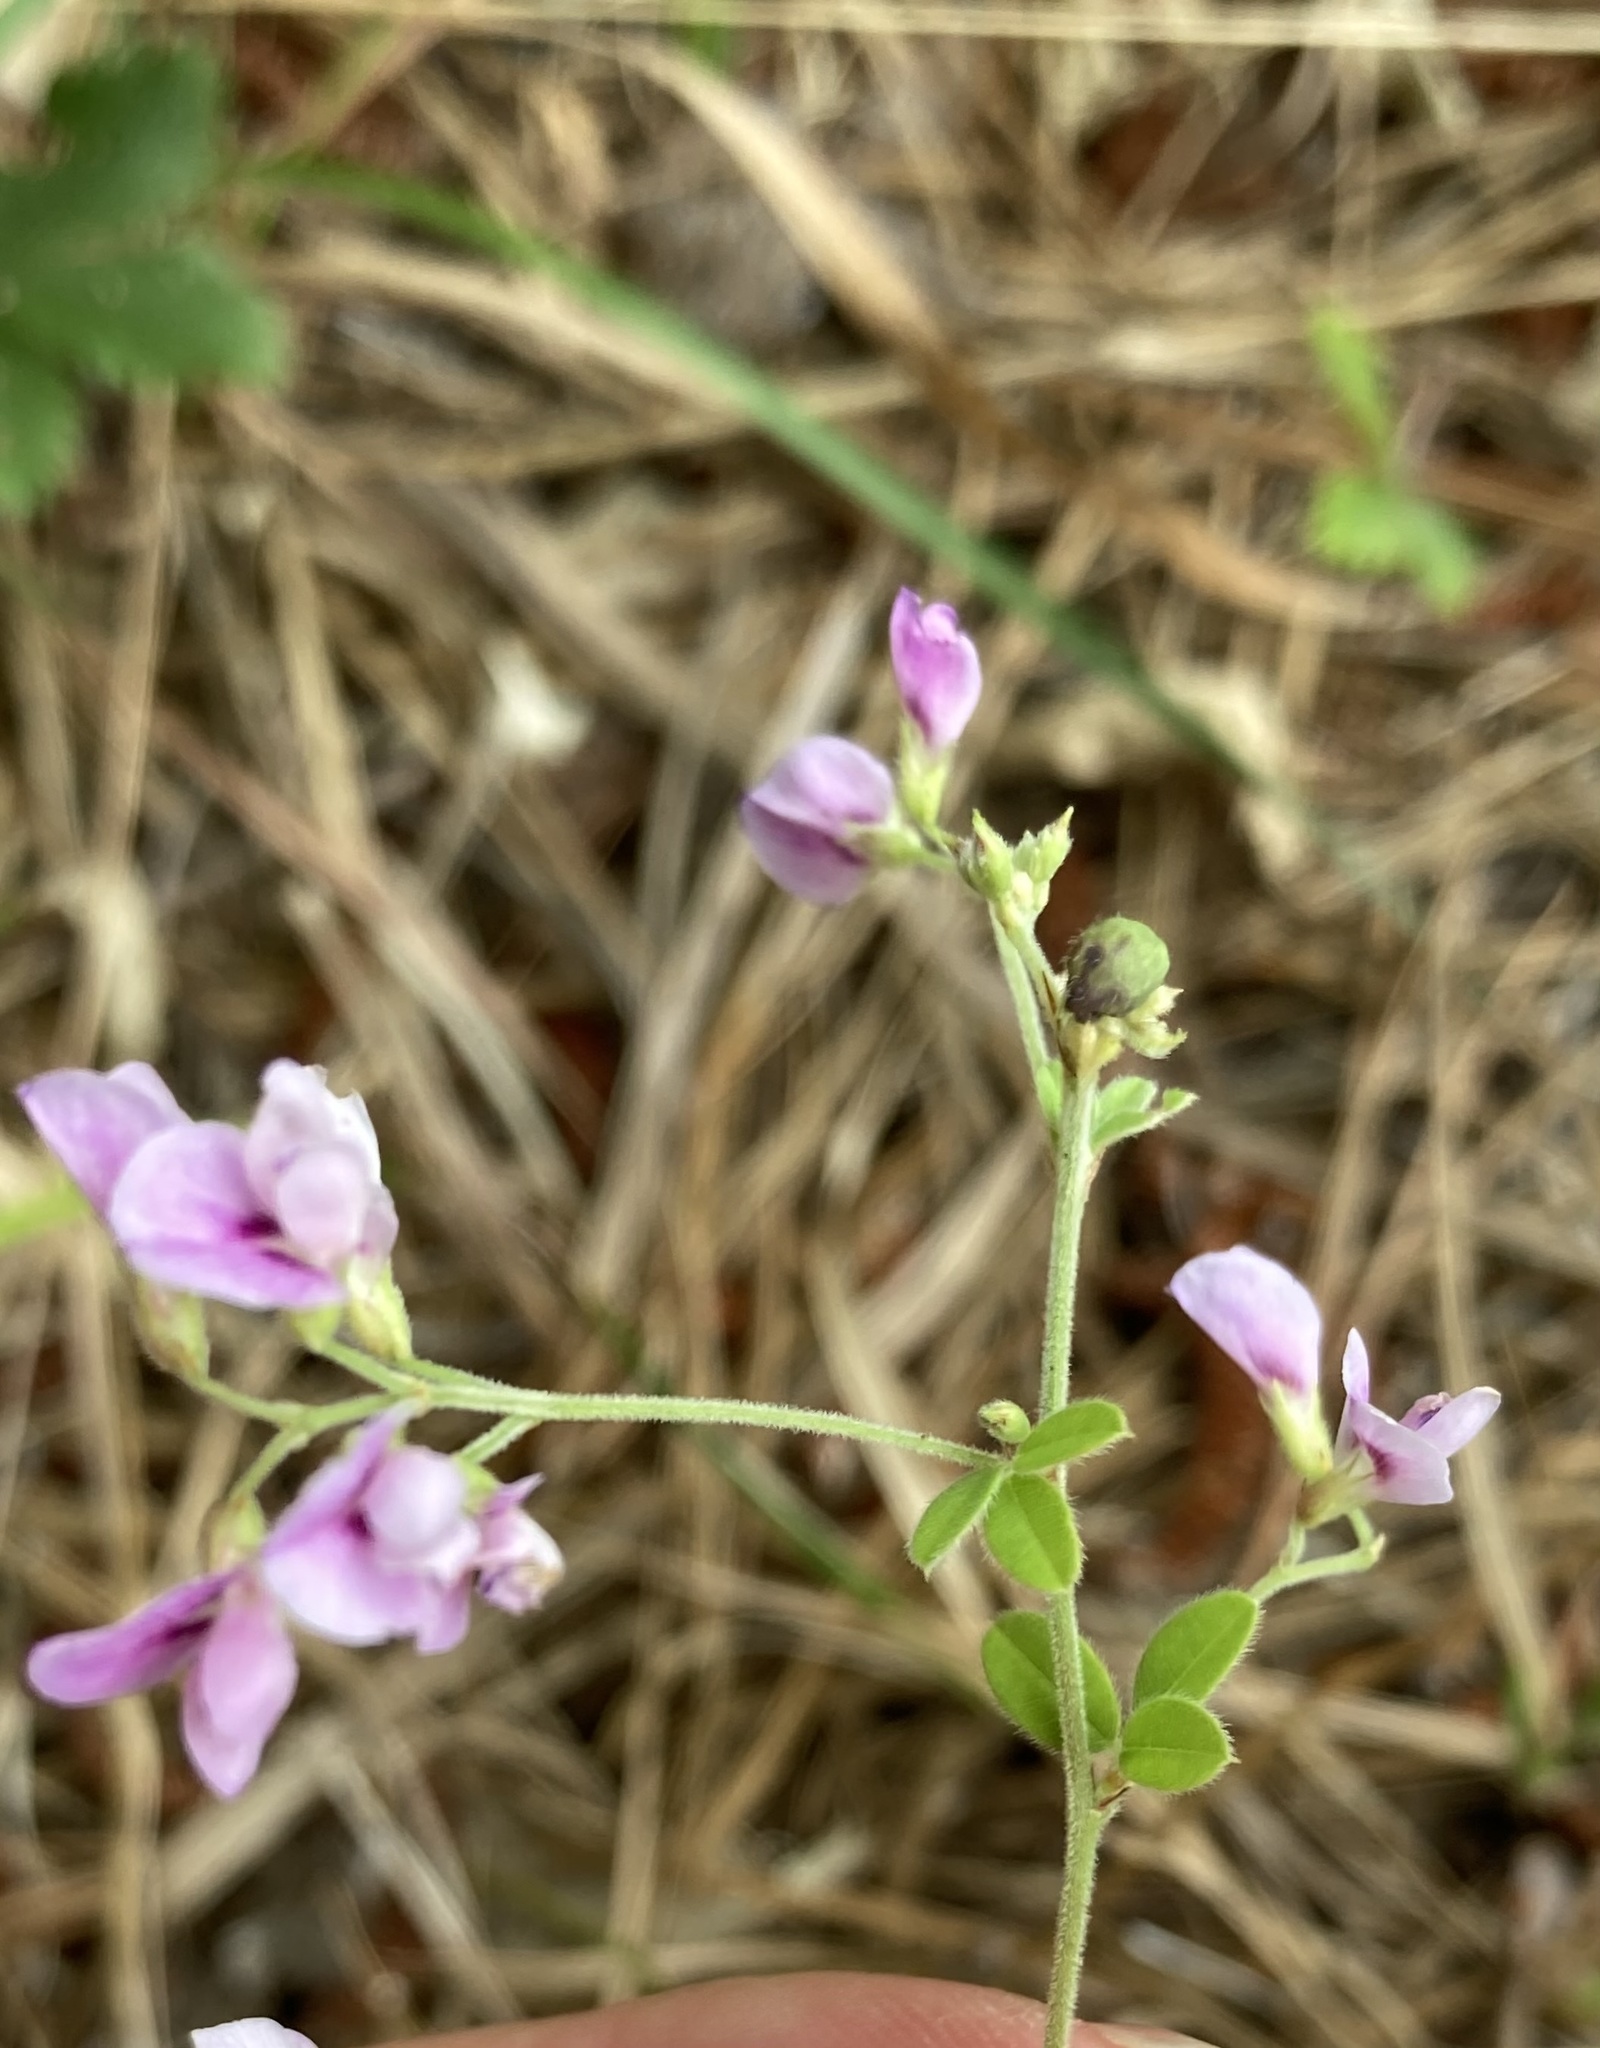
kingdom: Plantae
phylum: Tracheophyta
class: Magnoliopsida
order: Fabales
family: Fabaceae
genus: Lespedeza
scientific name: Lespedeza procumbens
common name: Downy trailing bush-clover
